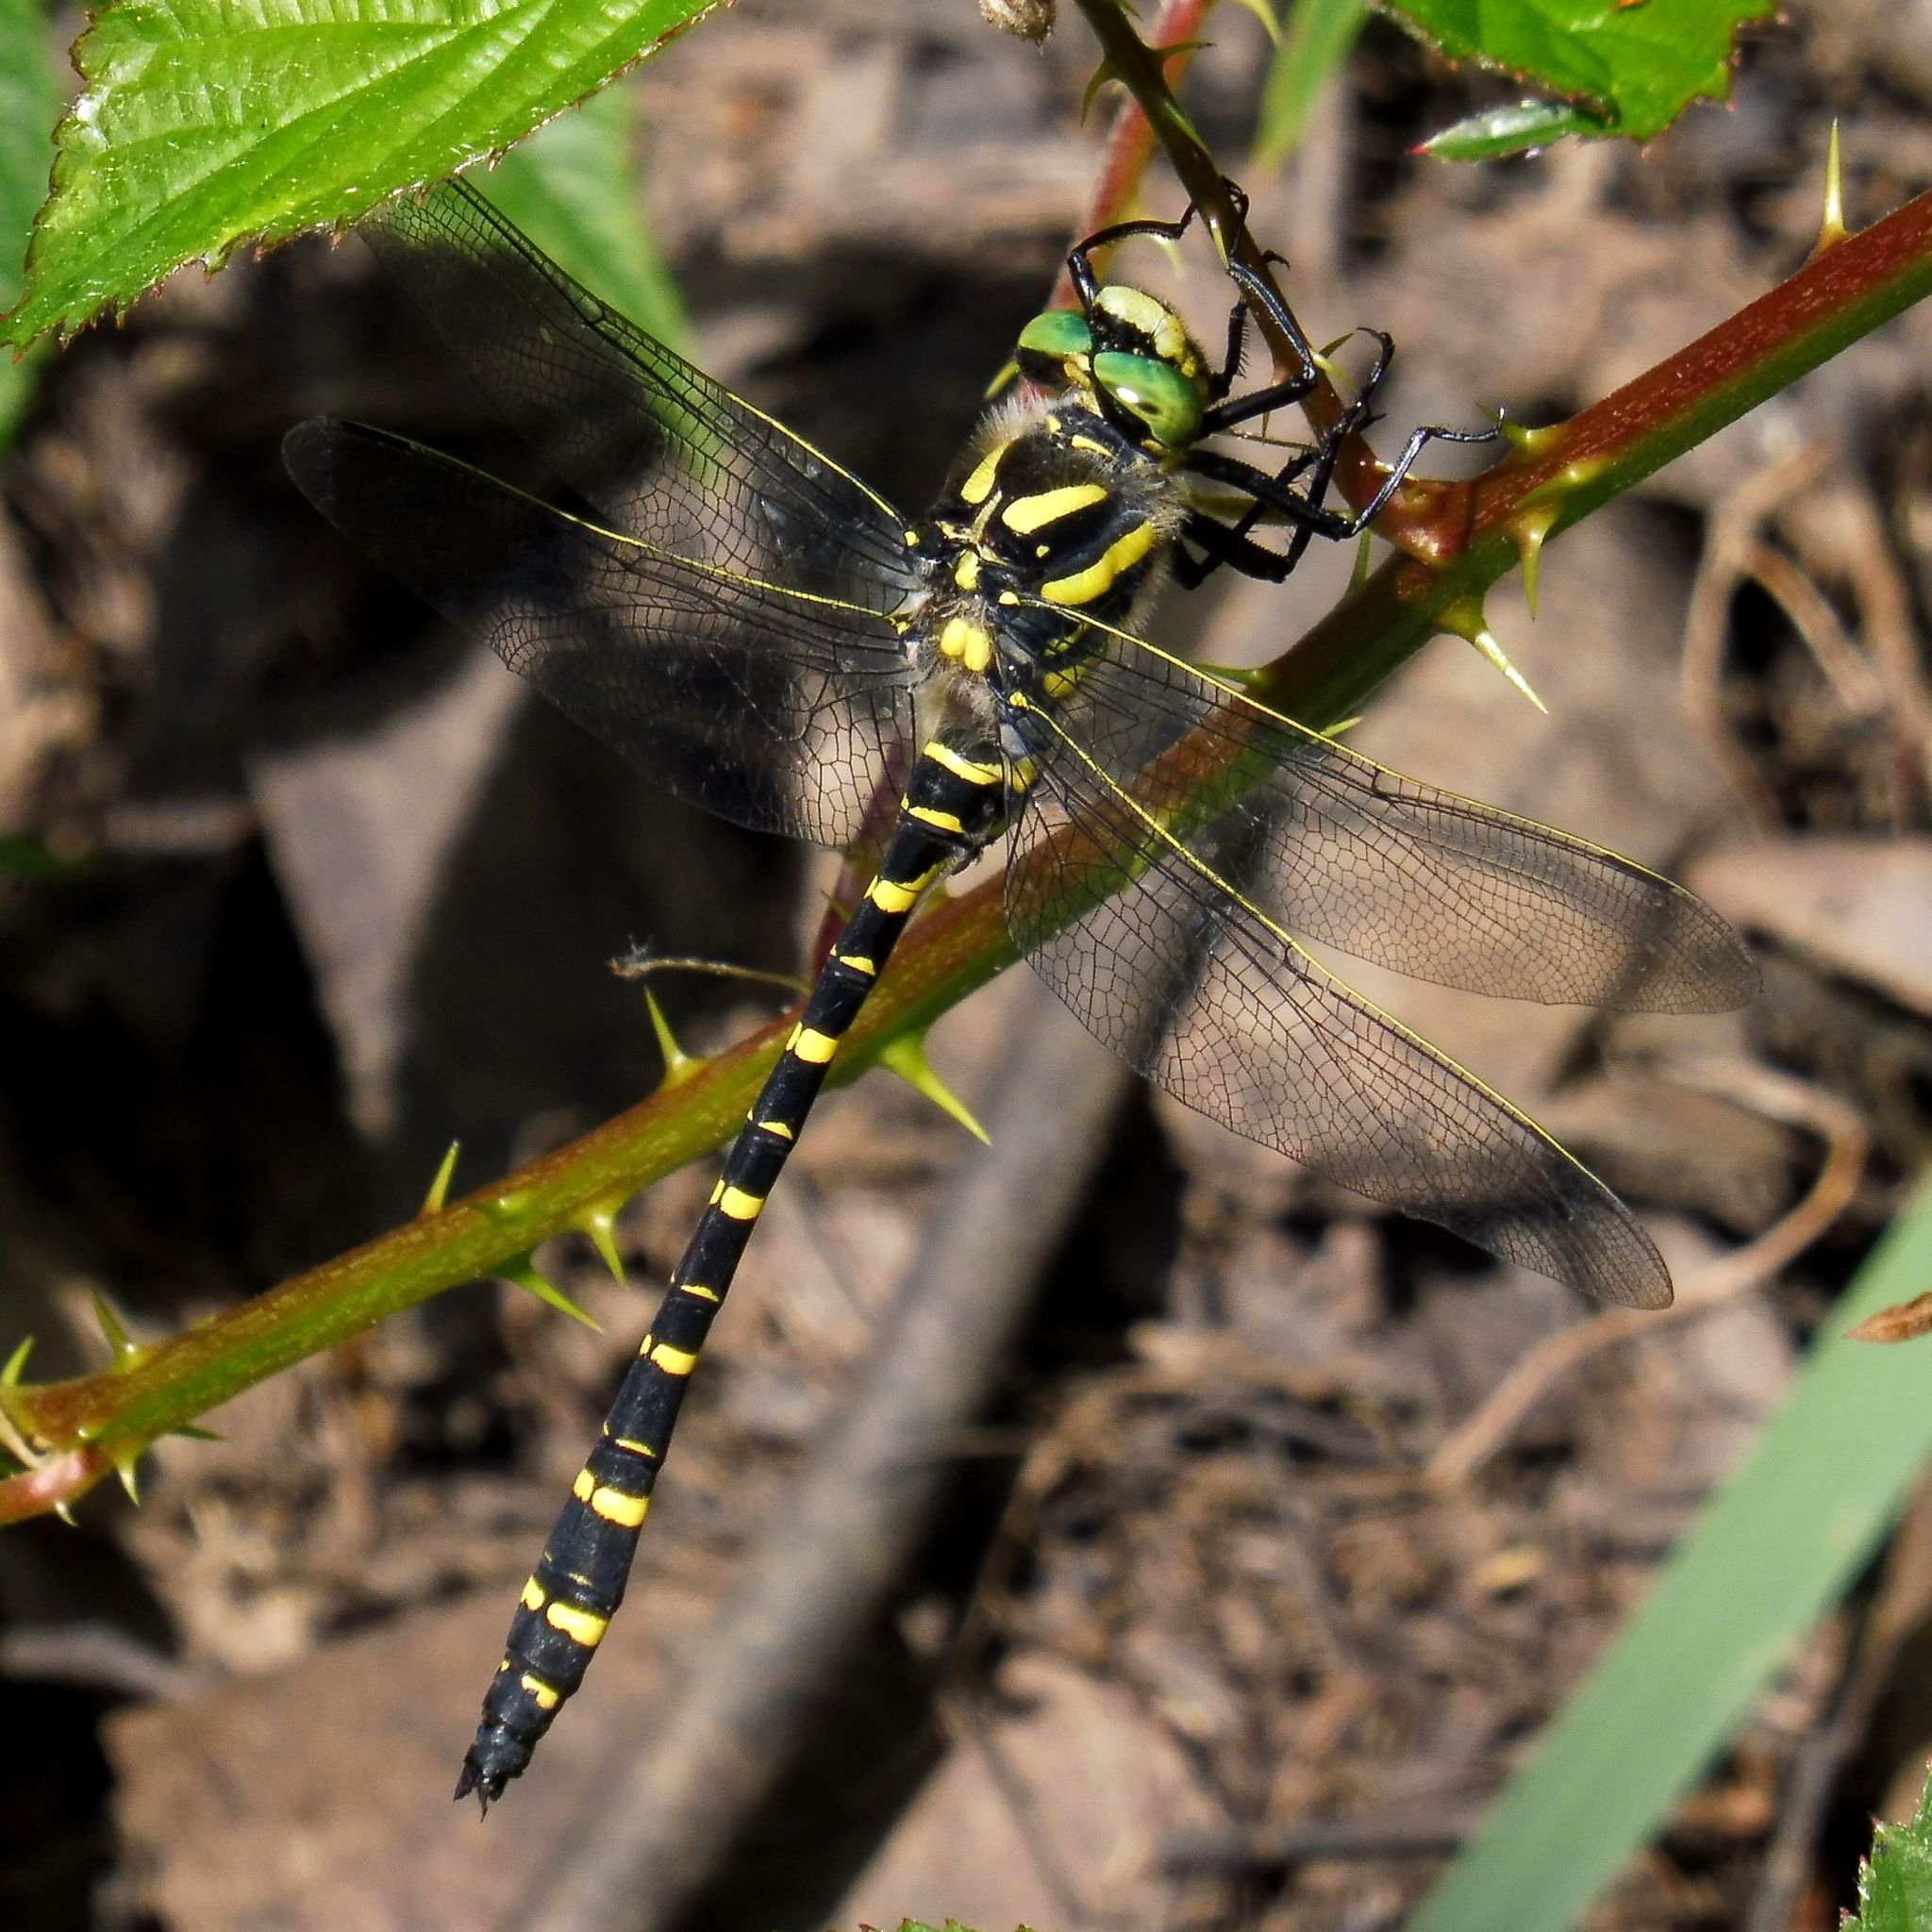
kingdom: Animalia
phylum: Arthropoda
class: Insecta
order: Odonata
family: Cordulegastridae
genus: Cordulegaster
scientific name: Cordulegaster boltonii
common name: Golden-ringed dragonfly
